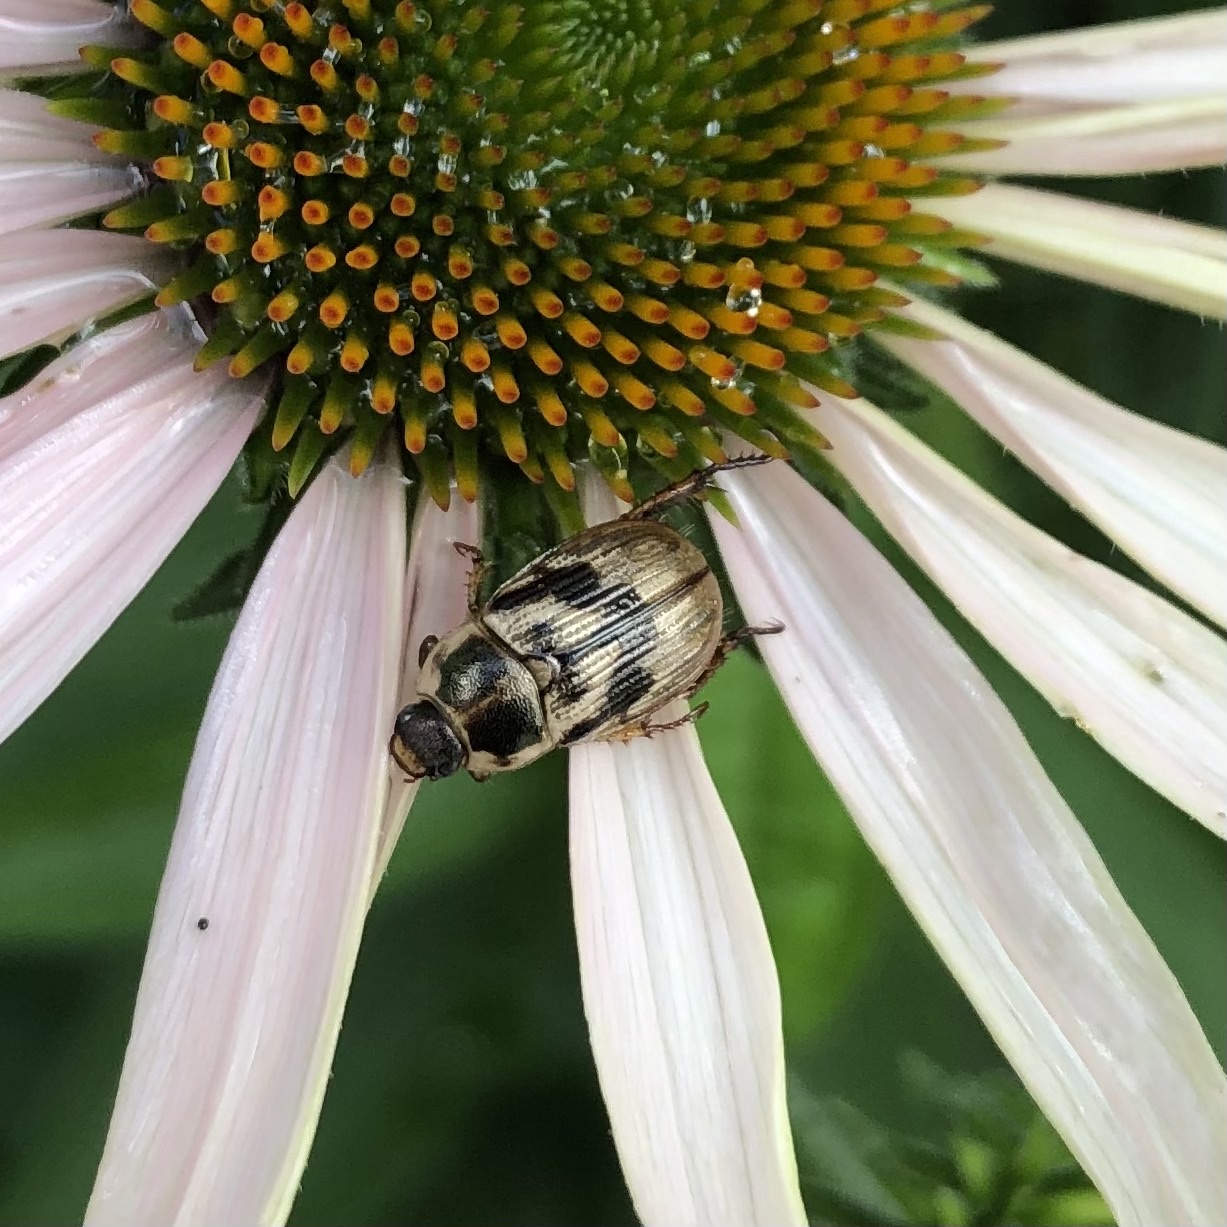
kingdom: Animalia
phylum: Arthropoda
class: Insecta
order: Coleoptera
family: Scarabaeidae
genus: Exomala
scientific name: Exomala orientalis
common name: Oriental beetle
